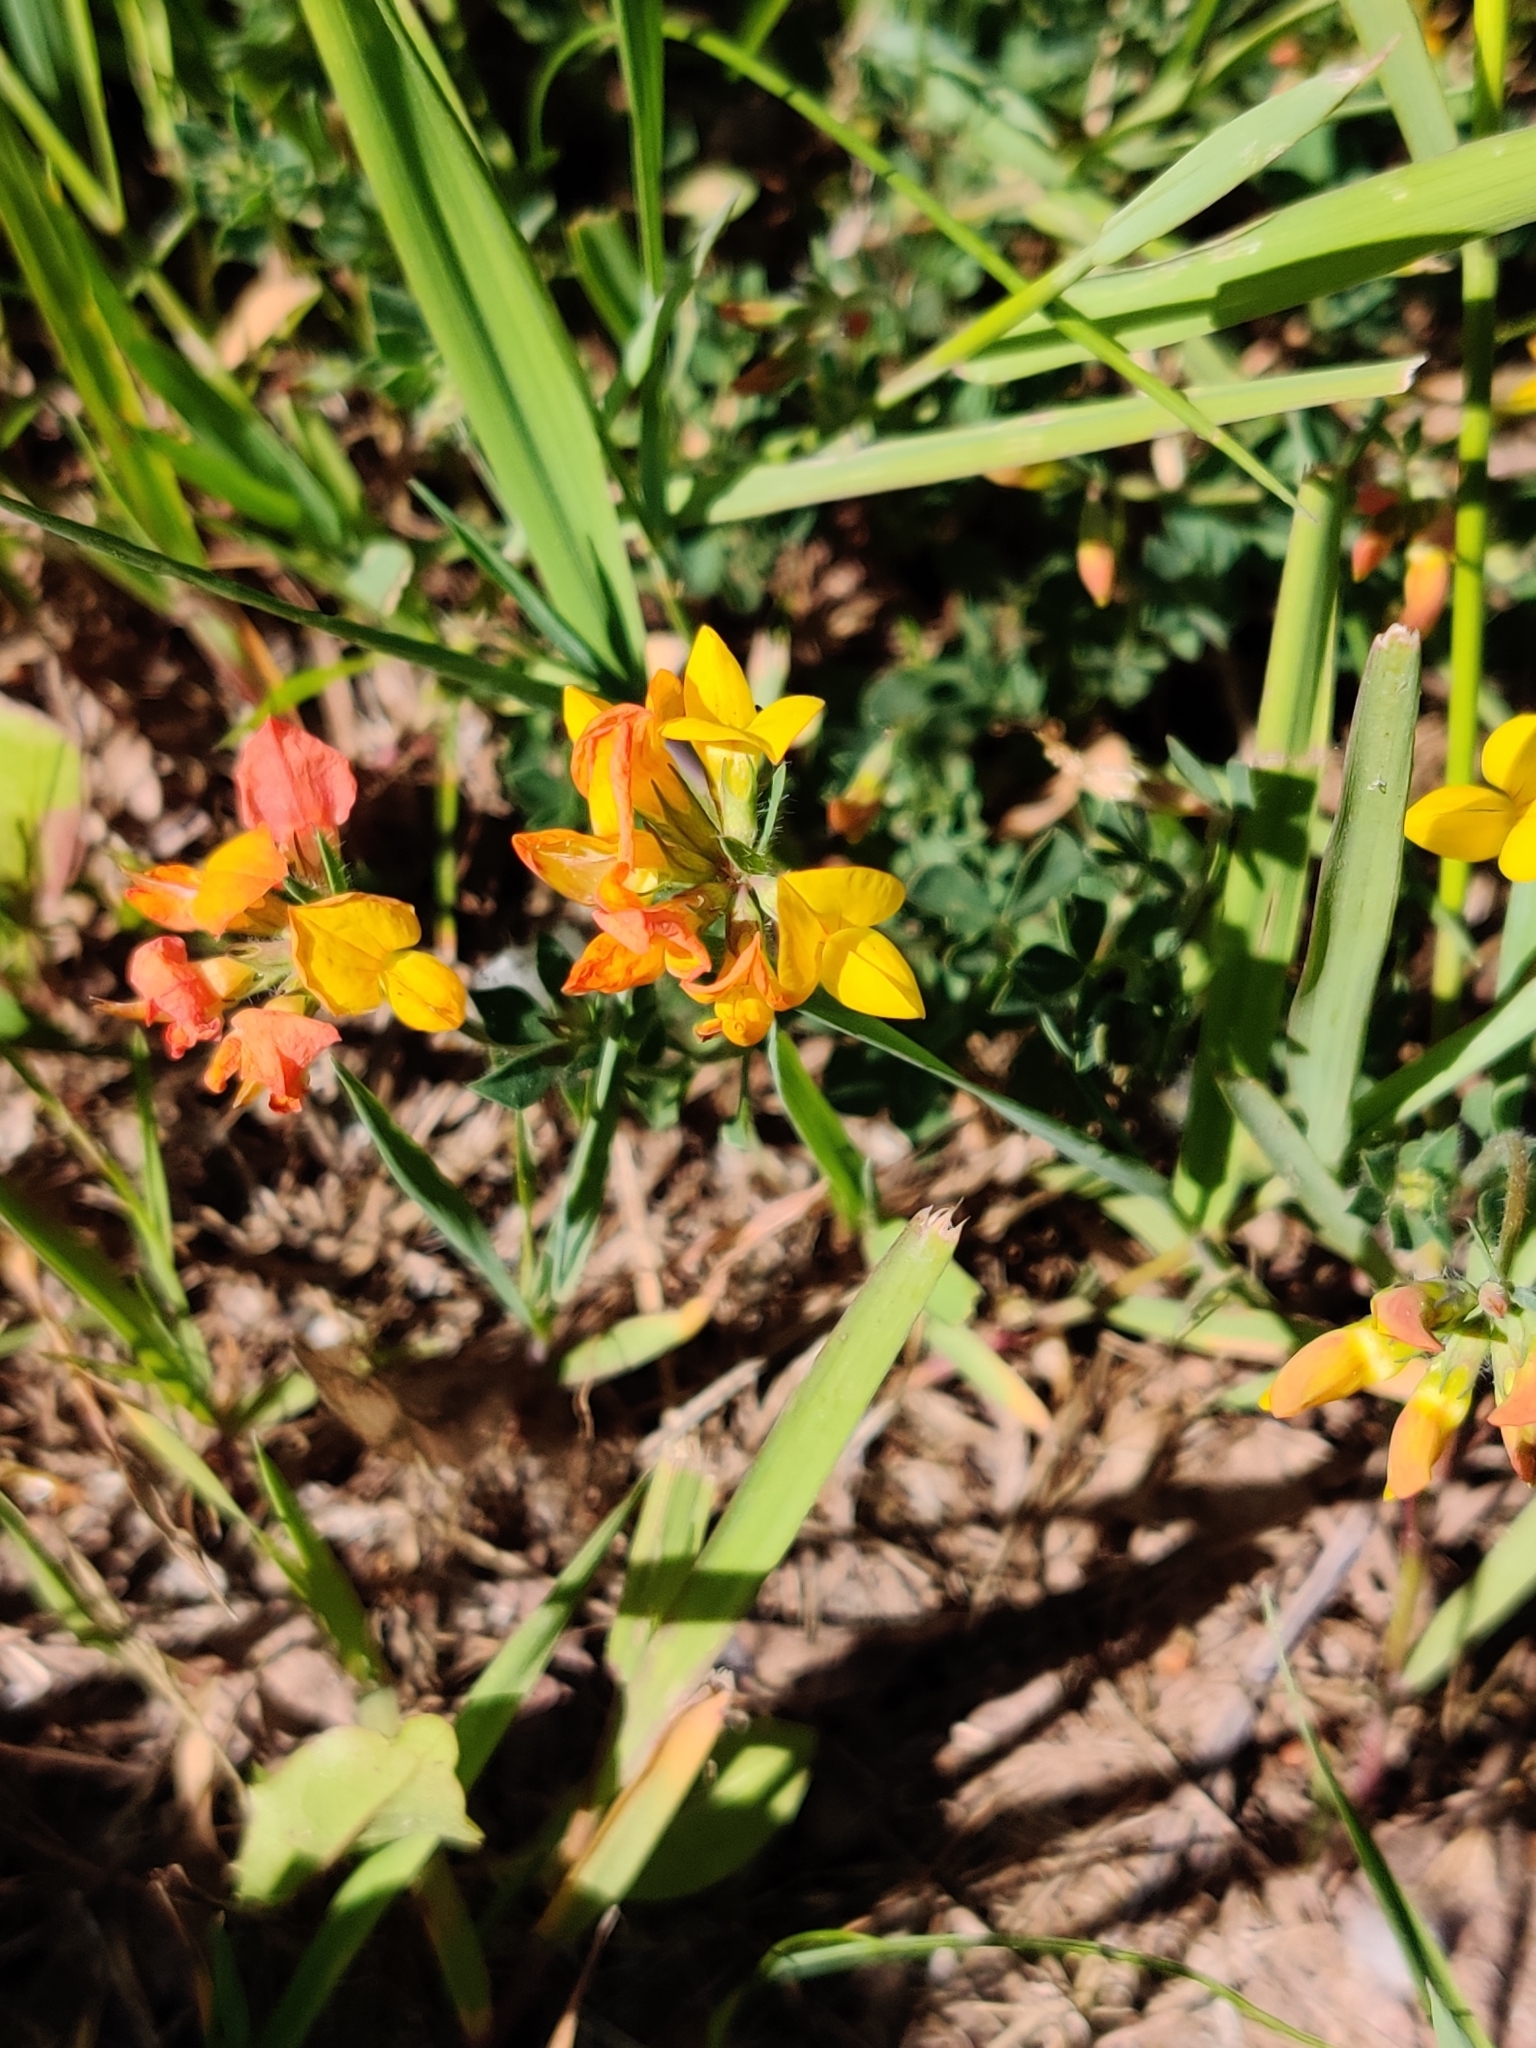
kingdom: Plantae
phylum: Tracheophyta
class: Magnoliopsida
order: Fabales
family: Fabaceae
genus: Lotus
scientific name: Lotus corniculatus
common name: Common bird's-foot-trefoil
